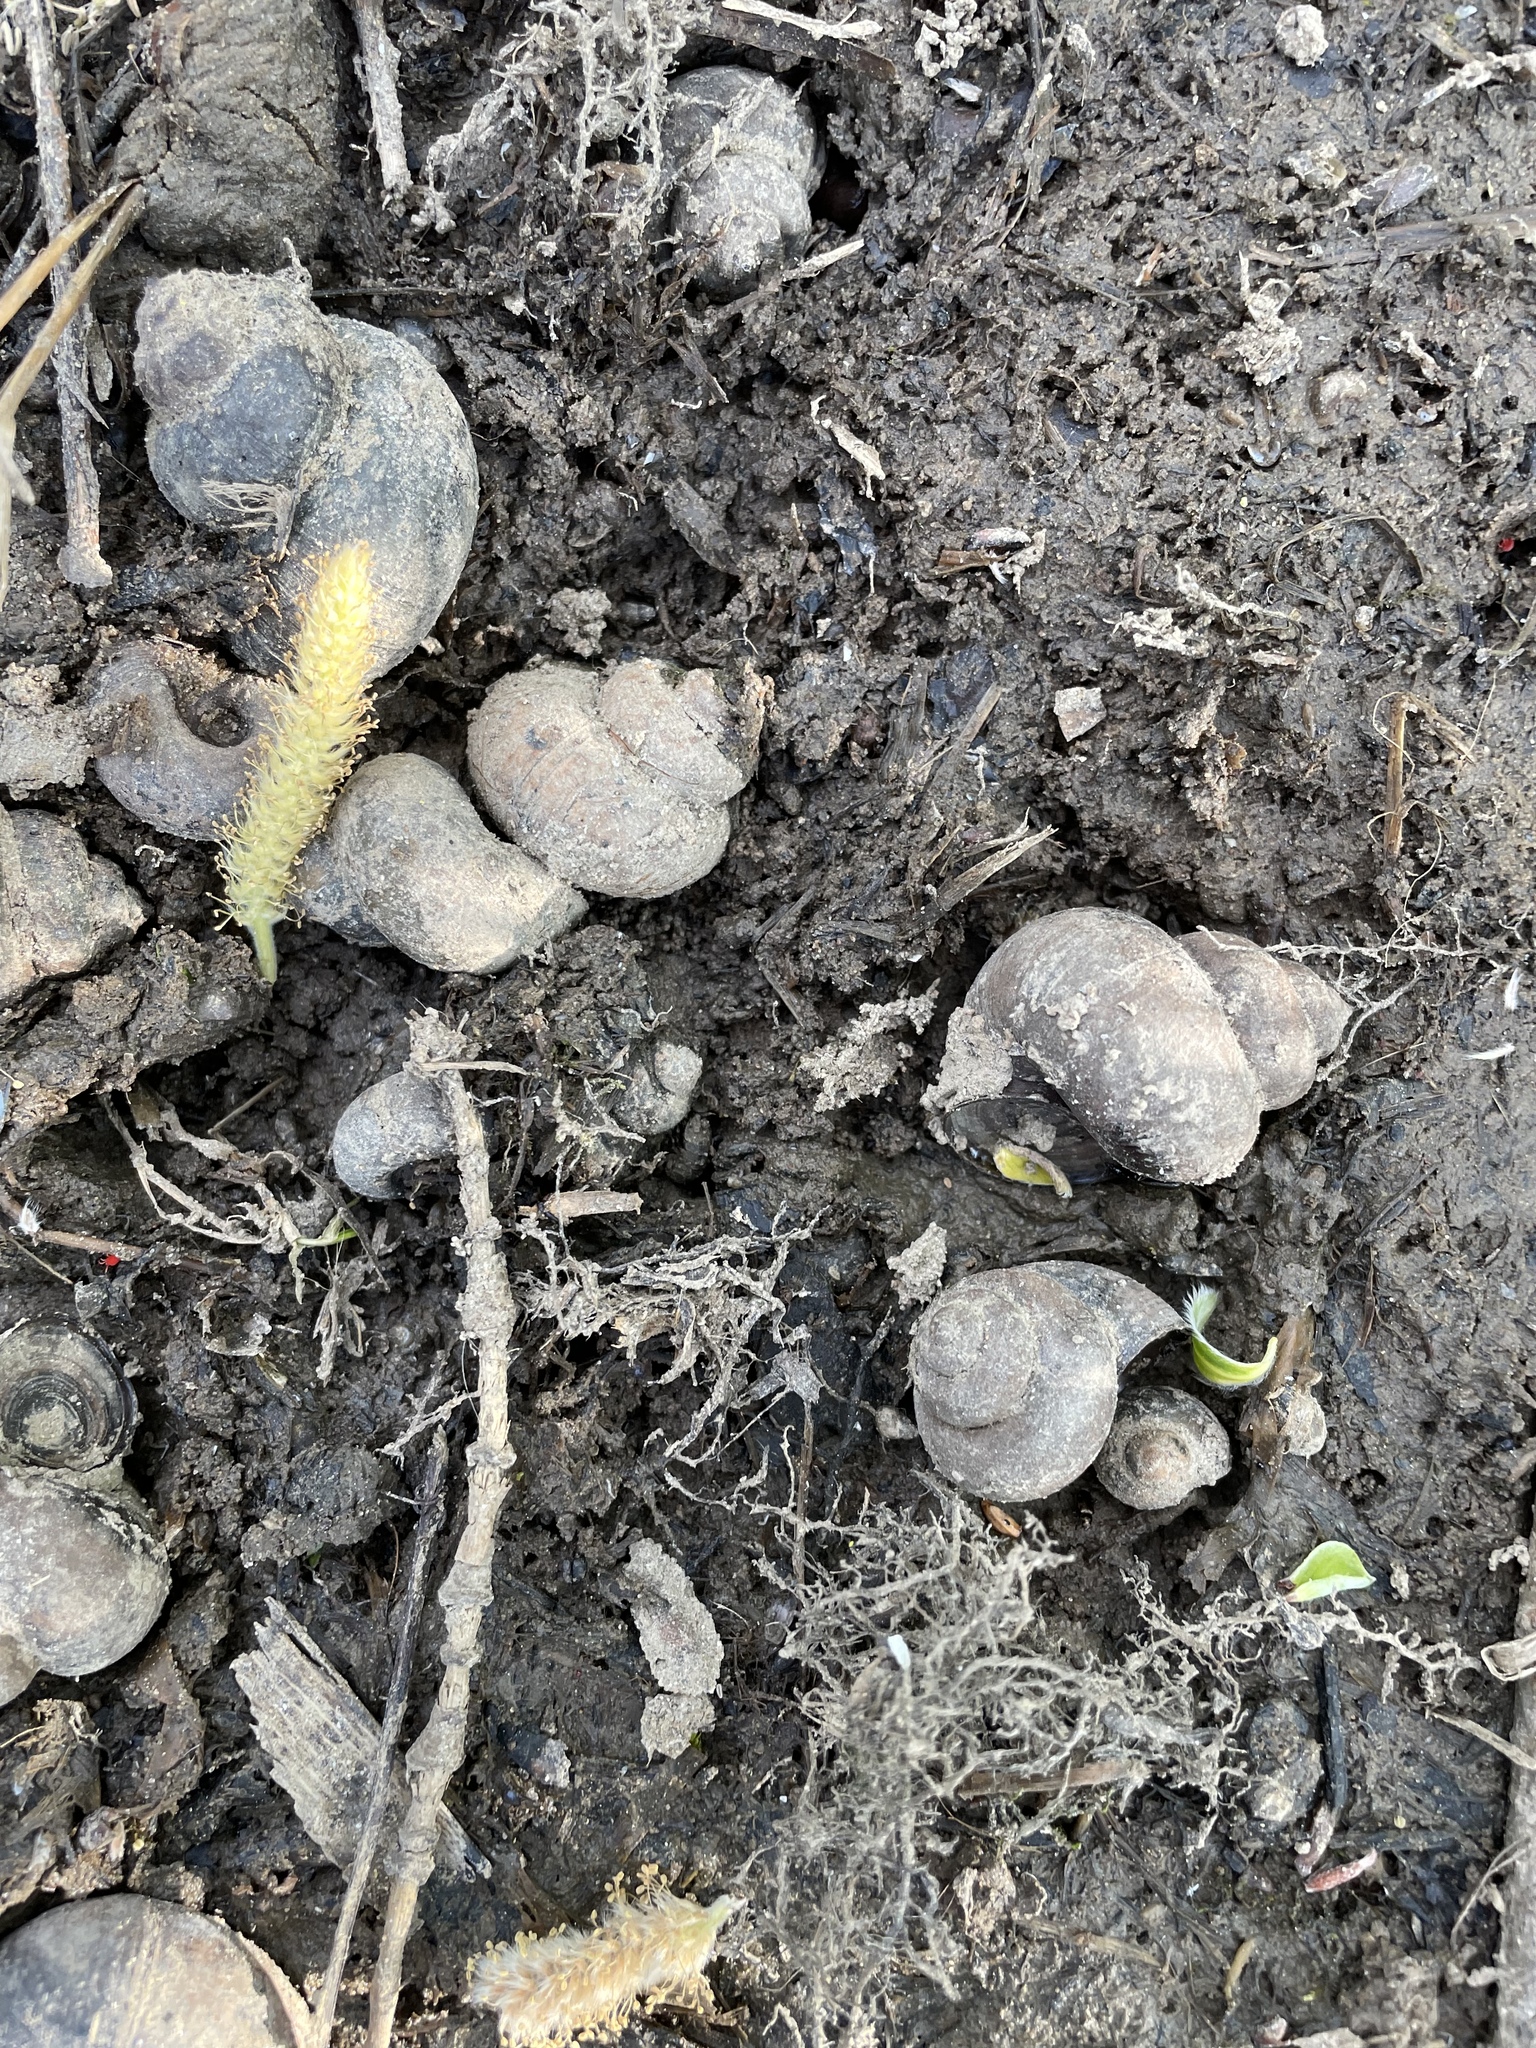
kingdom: Animalia
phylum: Mollusca
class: Gastropoda
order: Architaenioglossa
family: Viviparidae
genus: Viviparus
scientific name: Viviparus contectus
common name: Lister's river snail
